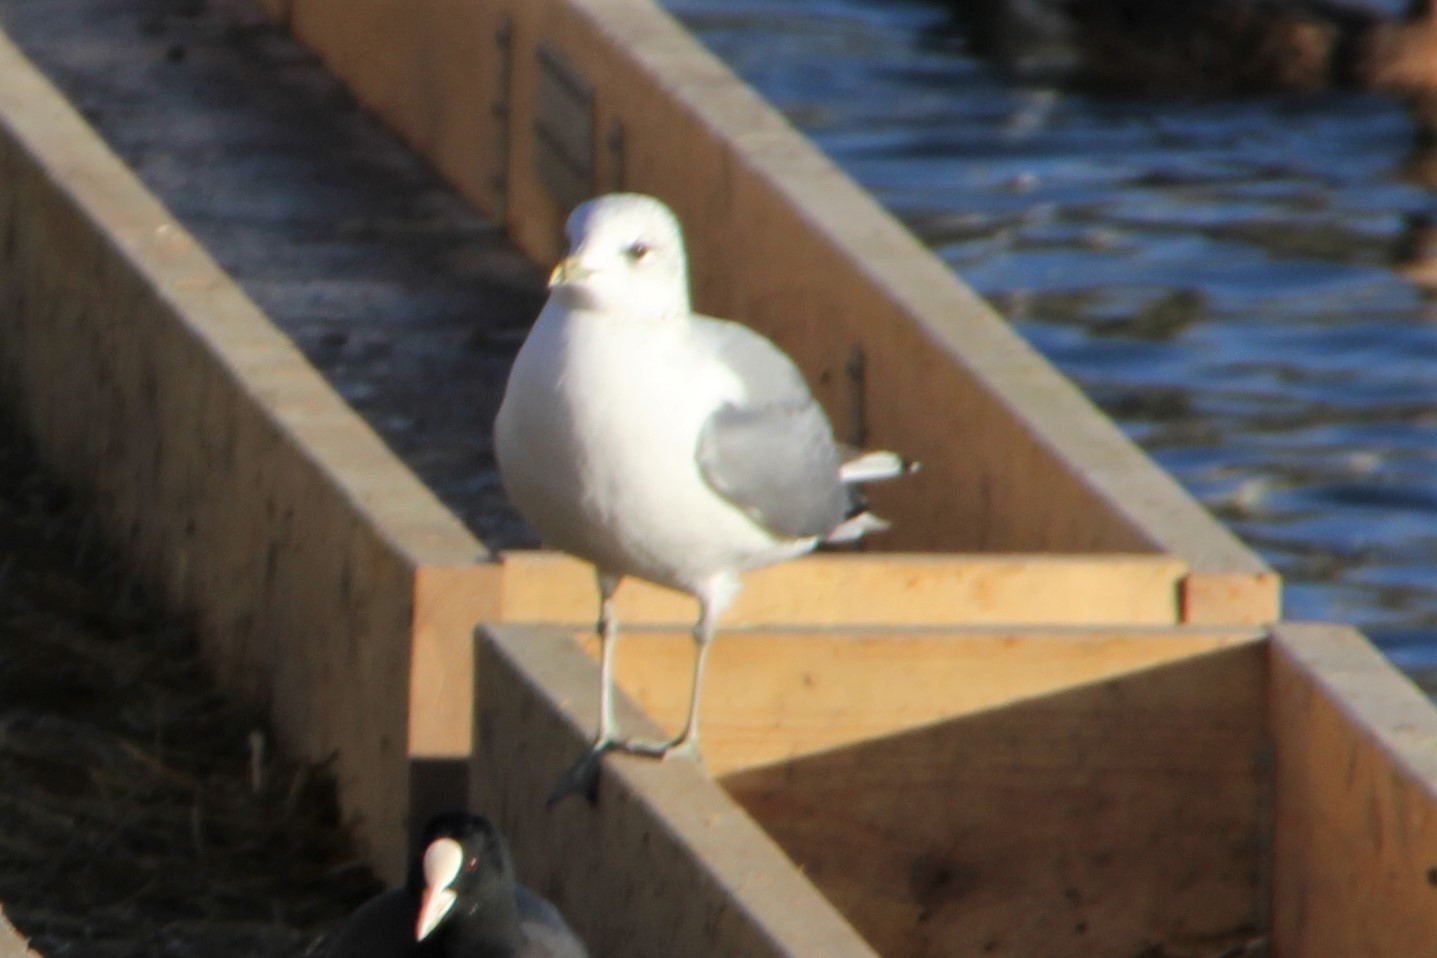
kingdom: Animalia
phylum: Chordata
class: Aves
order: Charadriiformes
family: Laridae
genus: Larus
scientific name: Larus canus
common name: Mew gull
